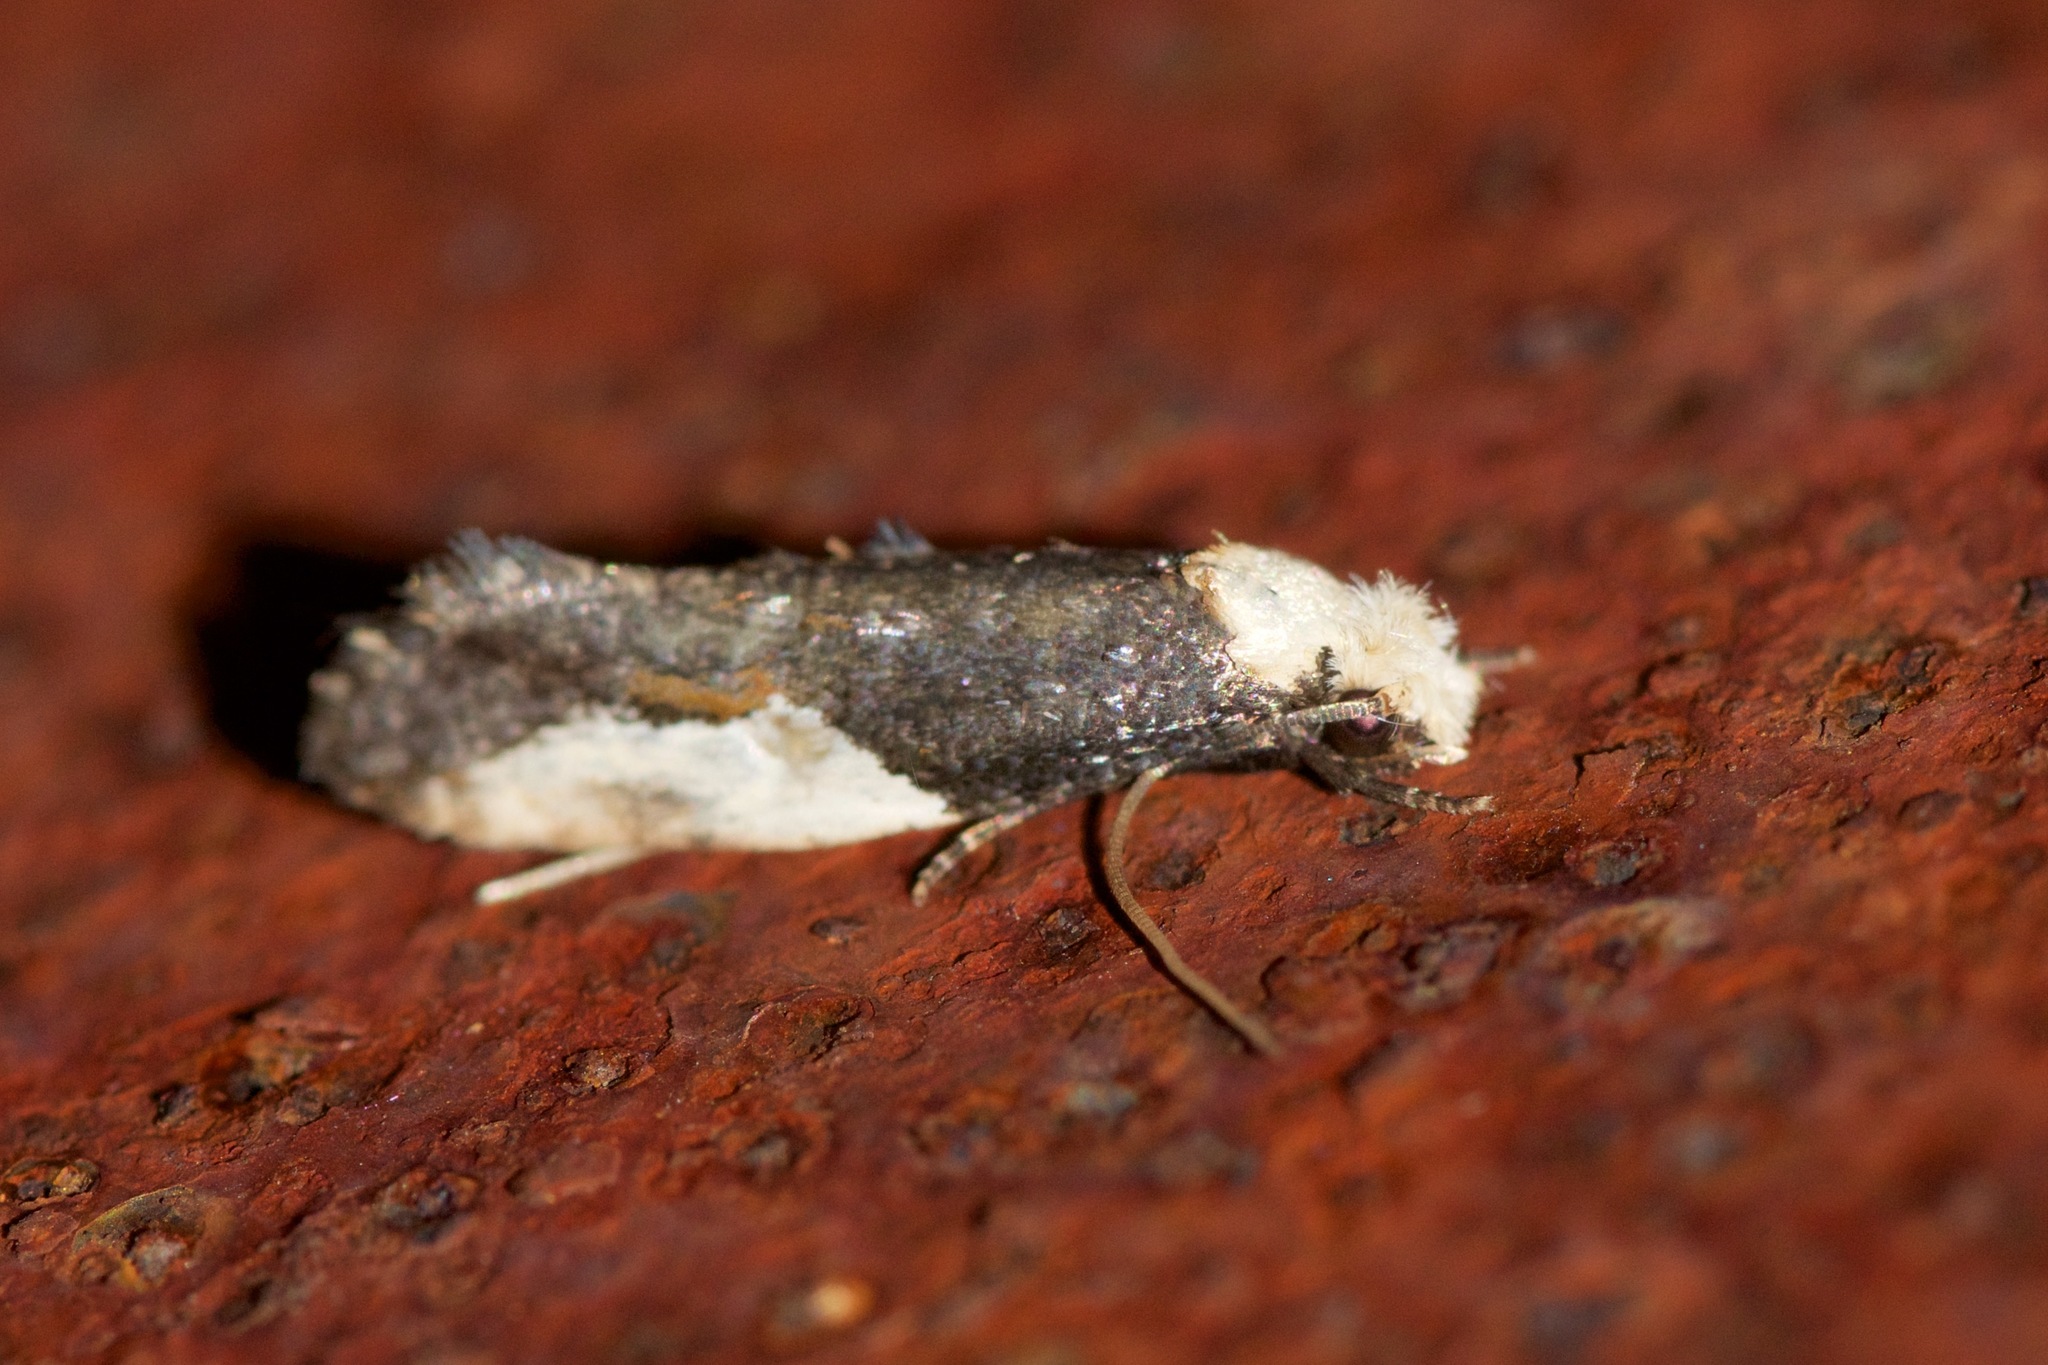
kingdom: Animalia
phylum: Arthropoda
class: Insecta
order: Lepidoptera
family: Tineidae
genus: Monopis
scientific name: Monopis longella
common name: Pavlovski's monopis moth
